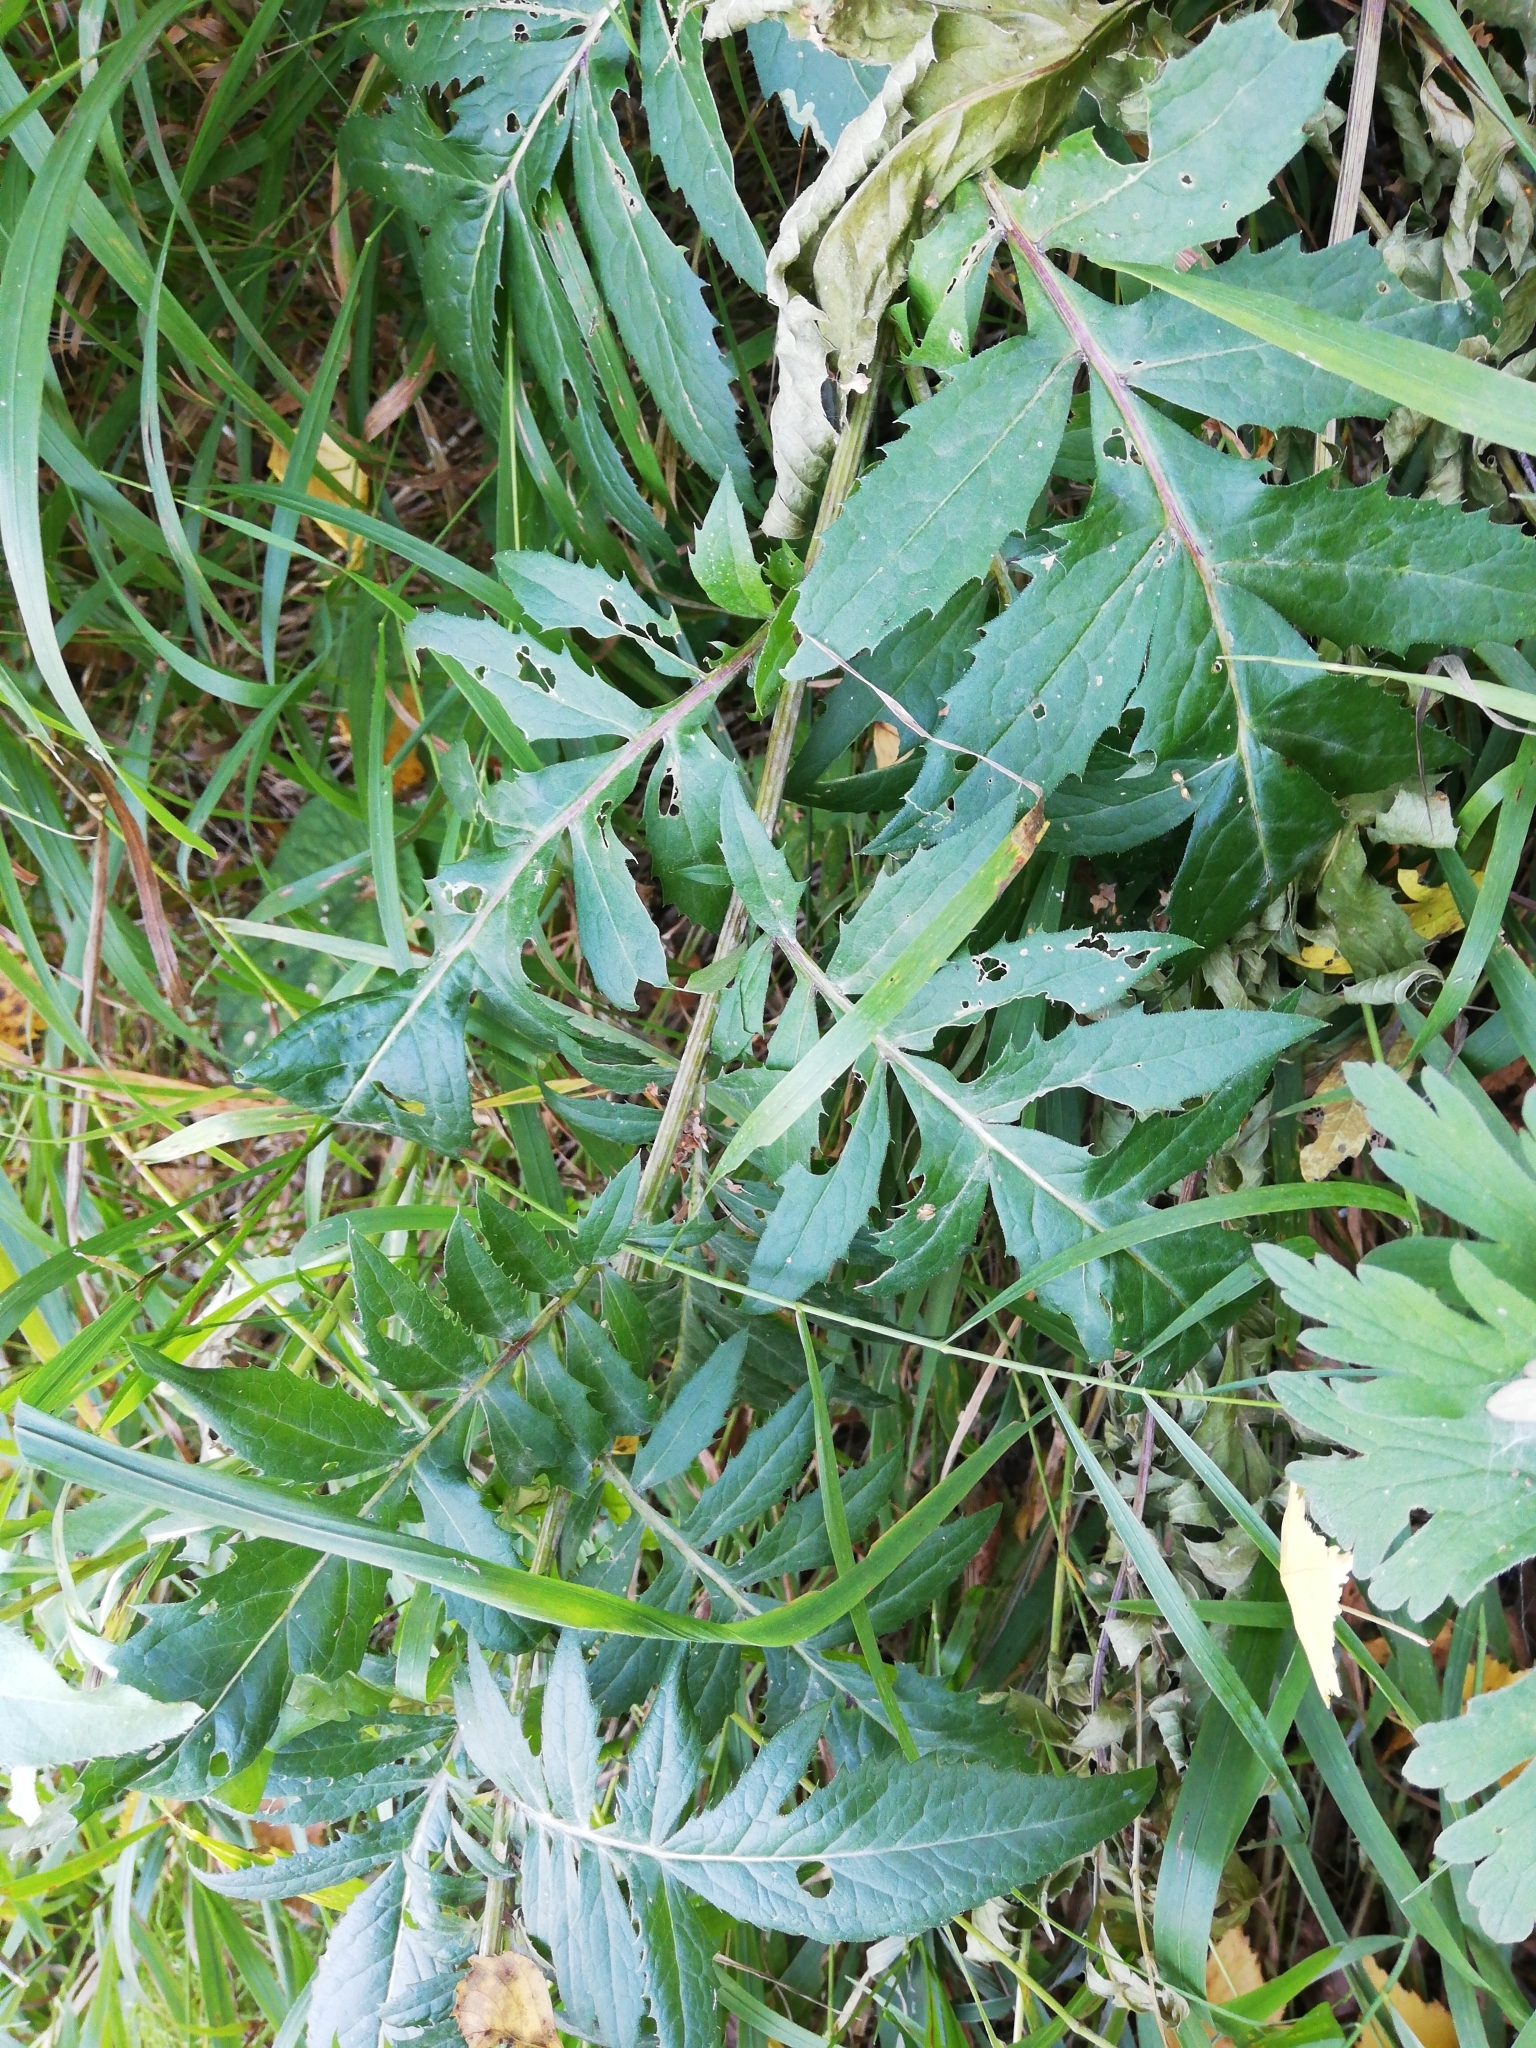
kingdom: Plantae
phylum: Tracheophyta
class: Magnoliopsida
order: Asterales
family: Asteraceae
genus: Serratula
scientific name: Serratula coronata
